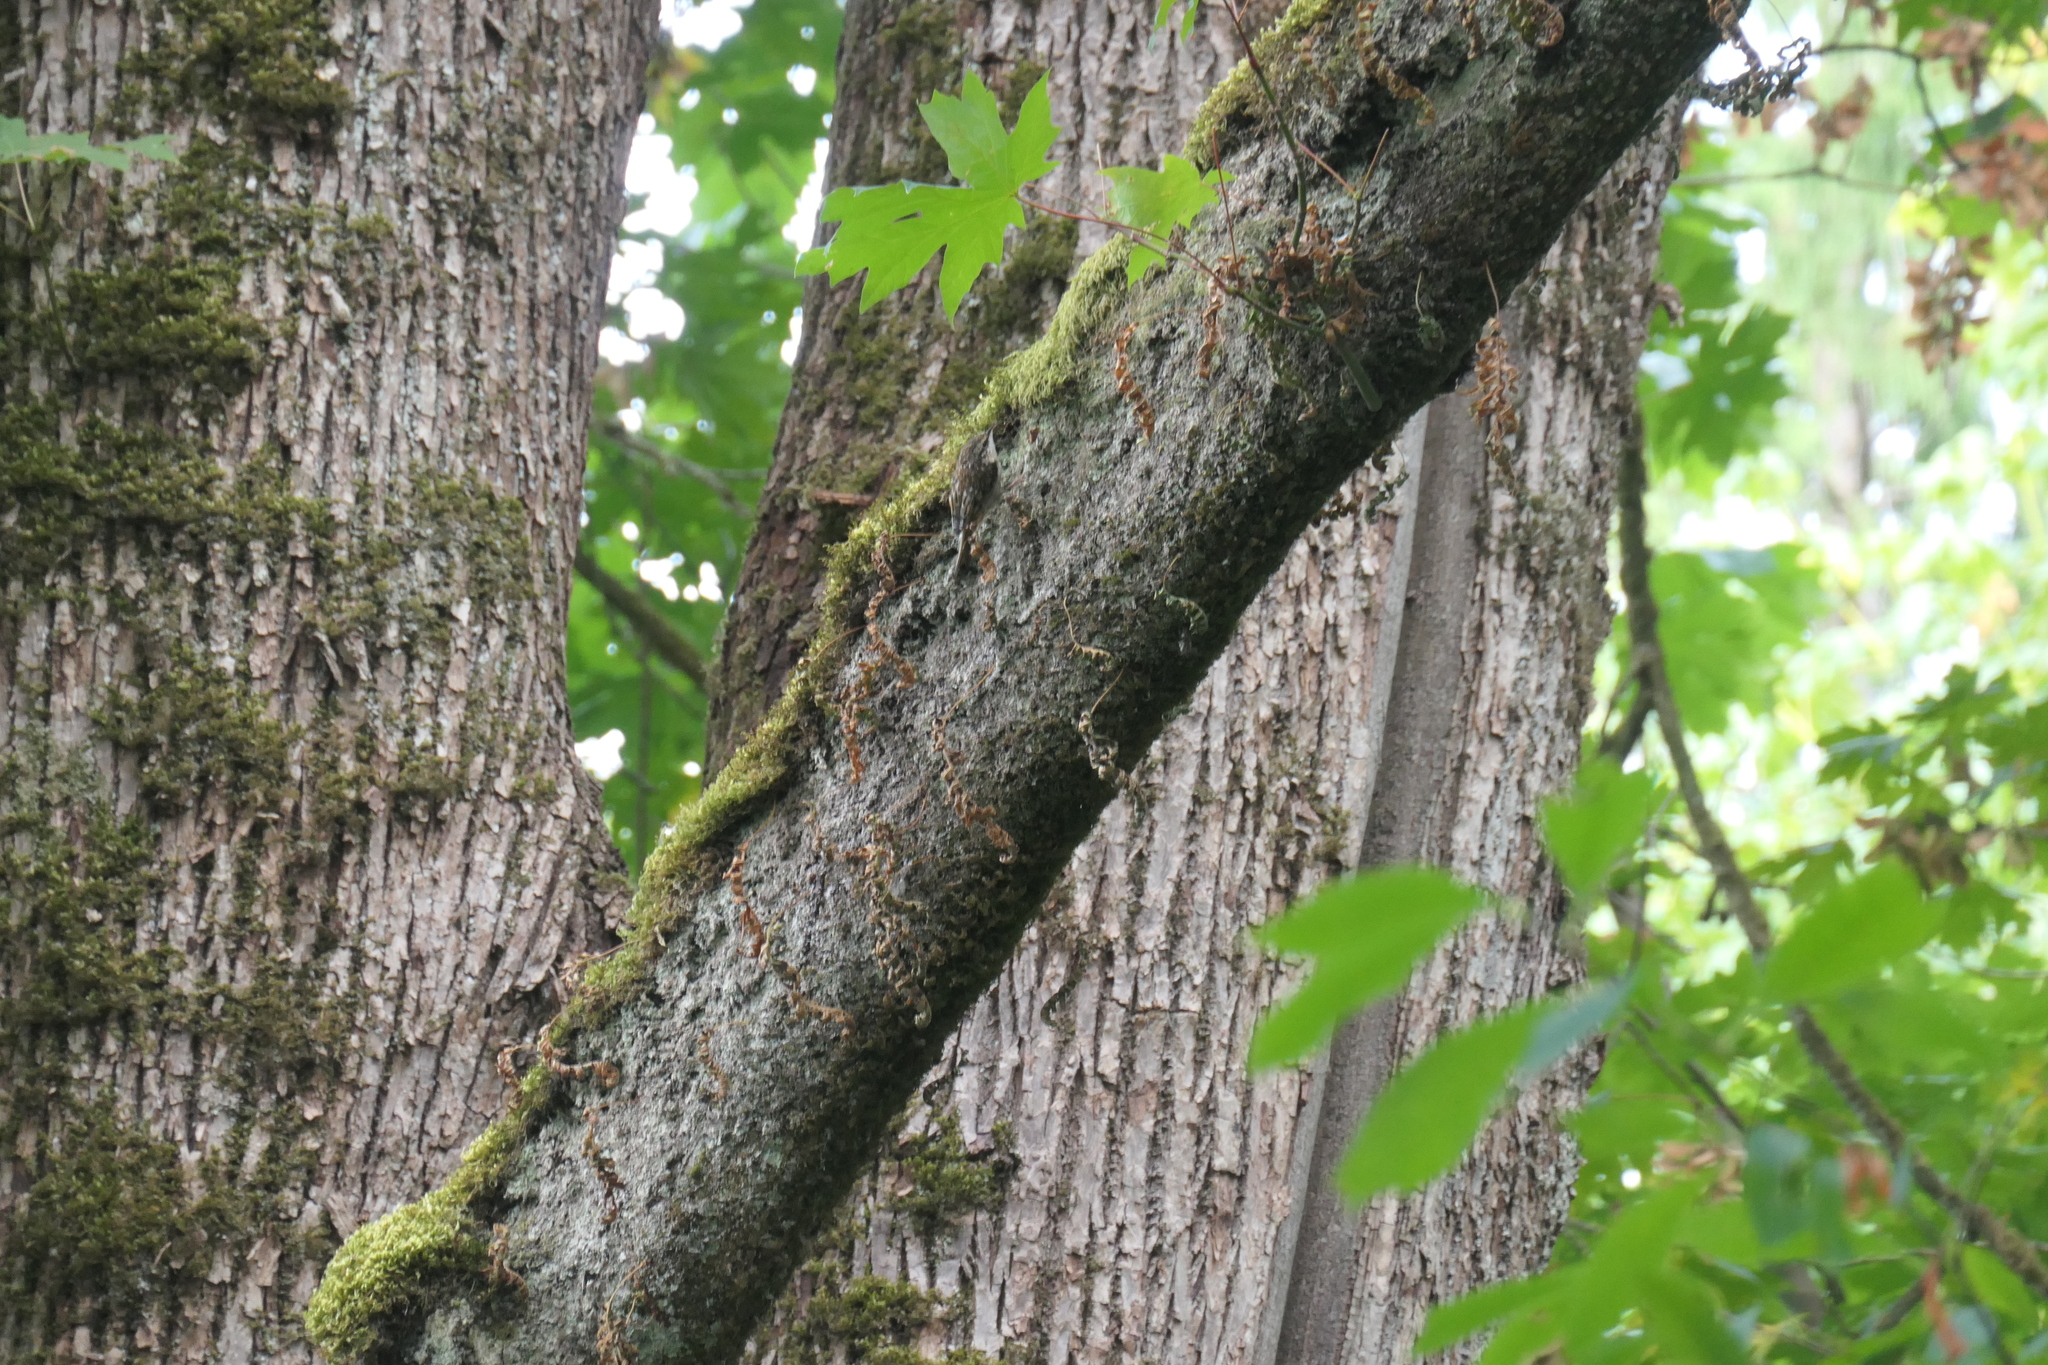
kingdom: Animalia
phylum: Chordata
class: Aves
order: Passeriformes
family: Certhiidae
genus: Certhia
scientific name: Certhia americana
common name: Brown creeper
